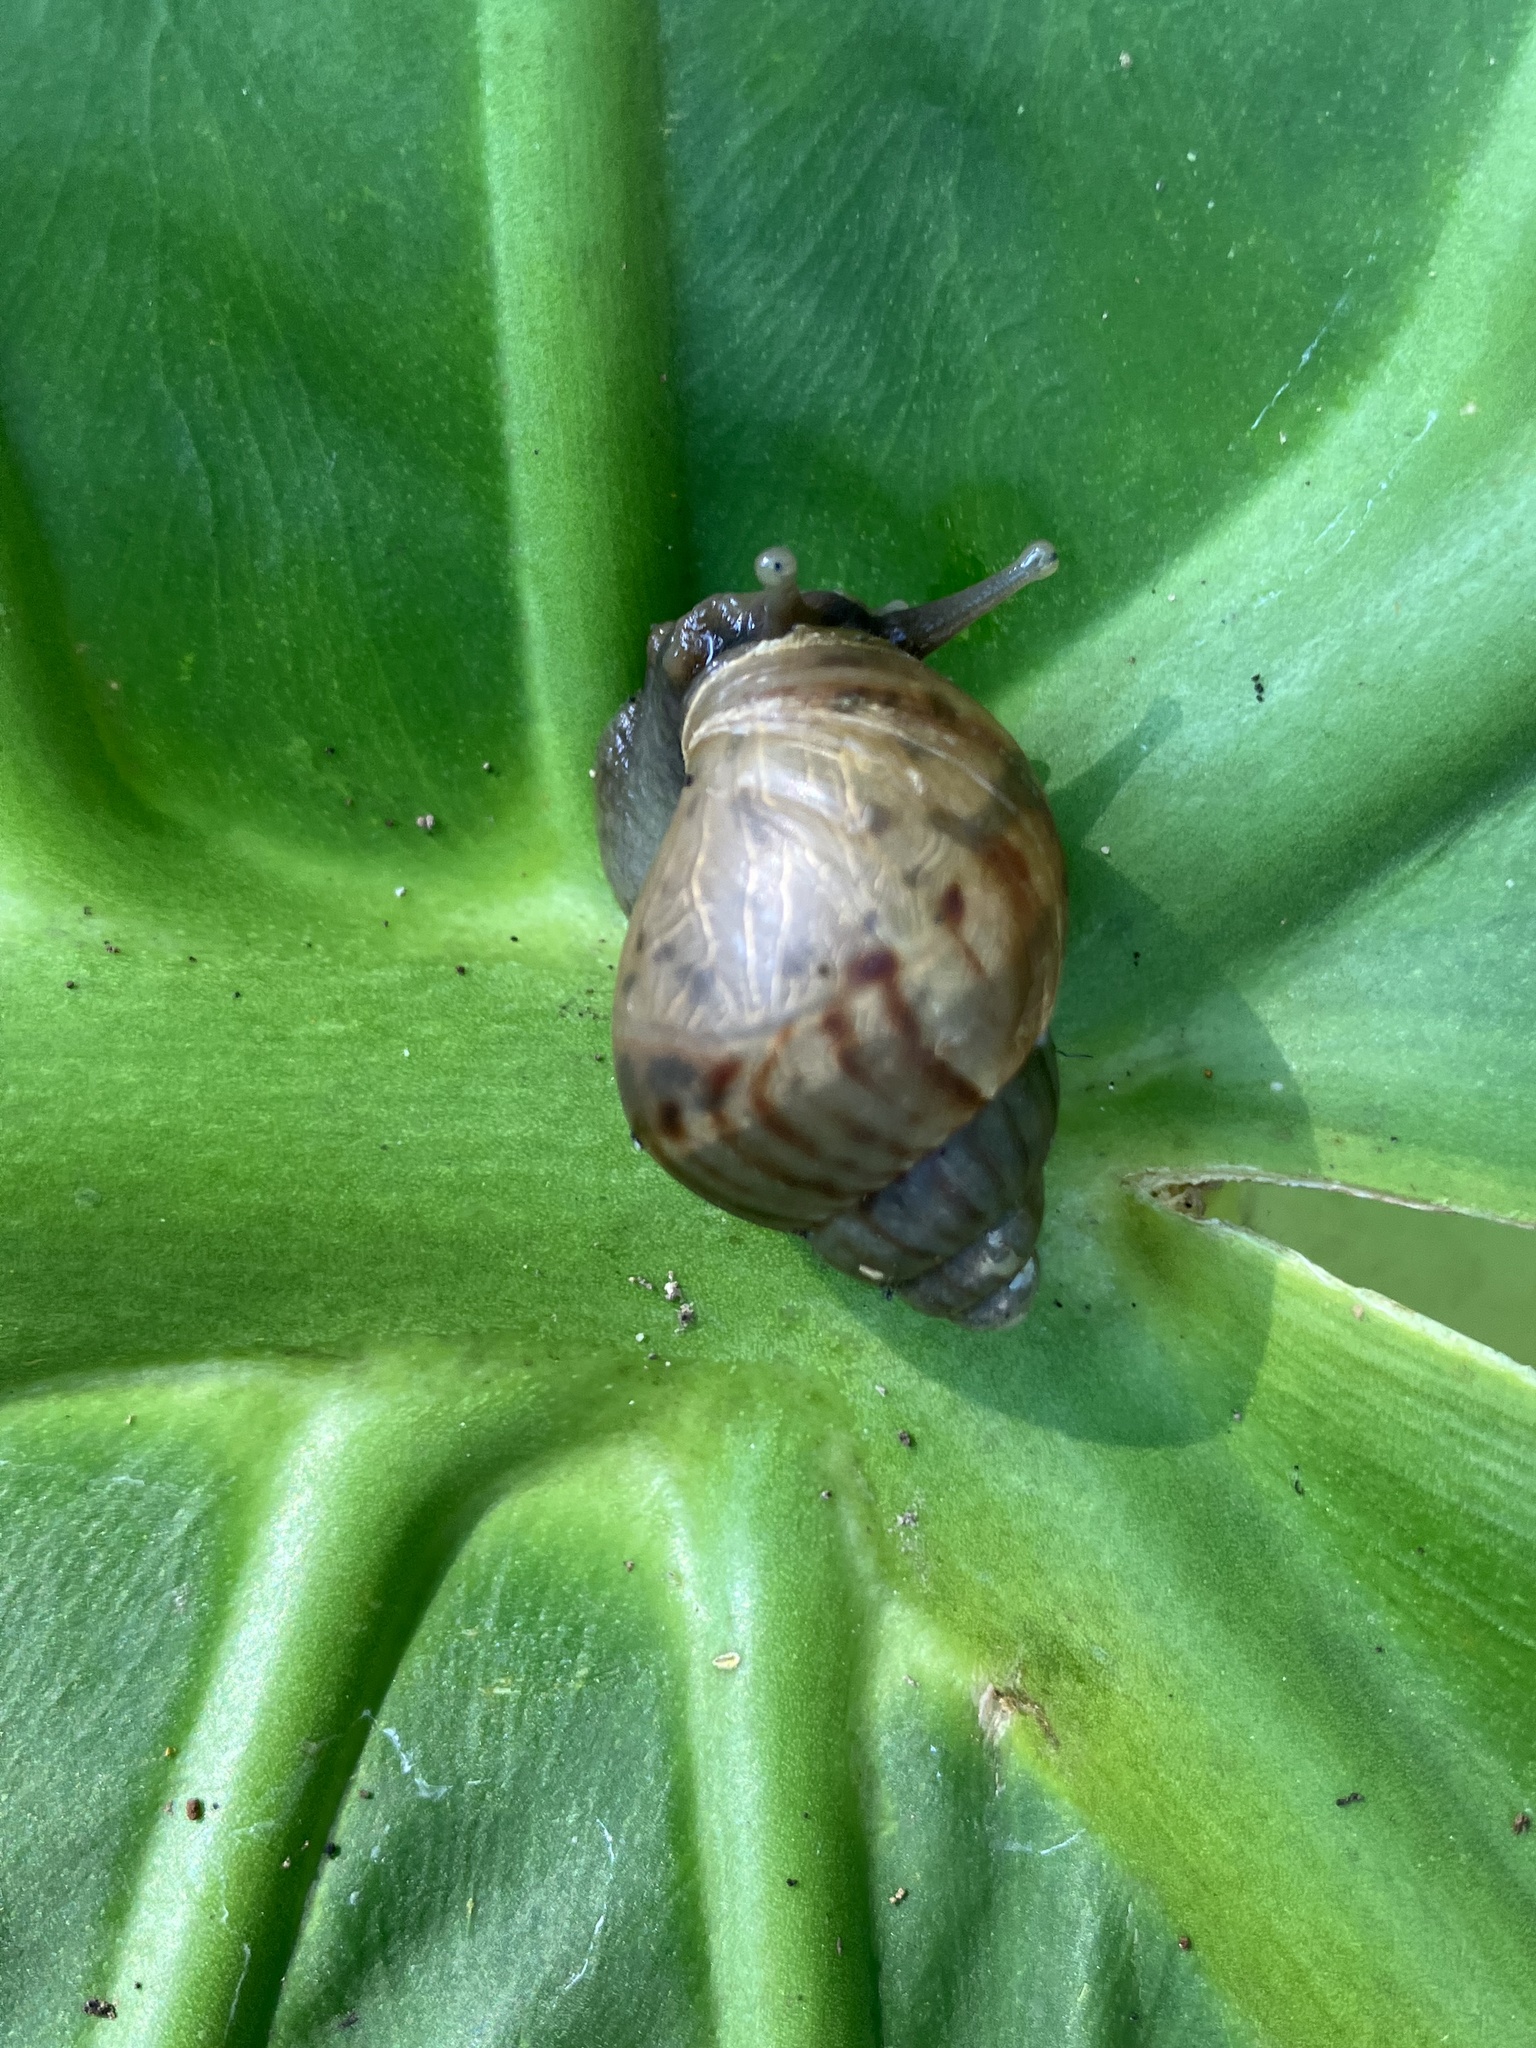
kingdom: Animalia
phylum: Mollusca
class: Gastropoda
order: Stylommatophora
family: Achatinidae
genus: Lissachatina
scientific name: Lissachatina fulica
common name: Giant african snail
